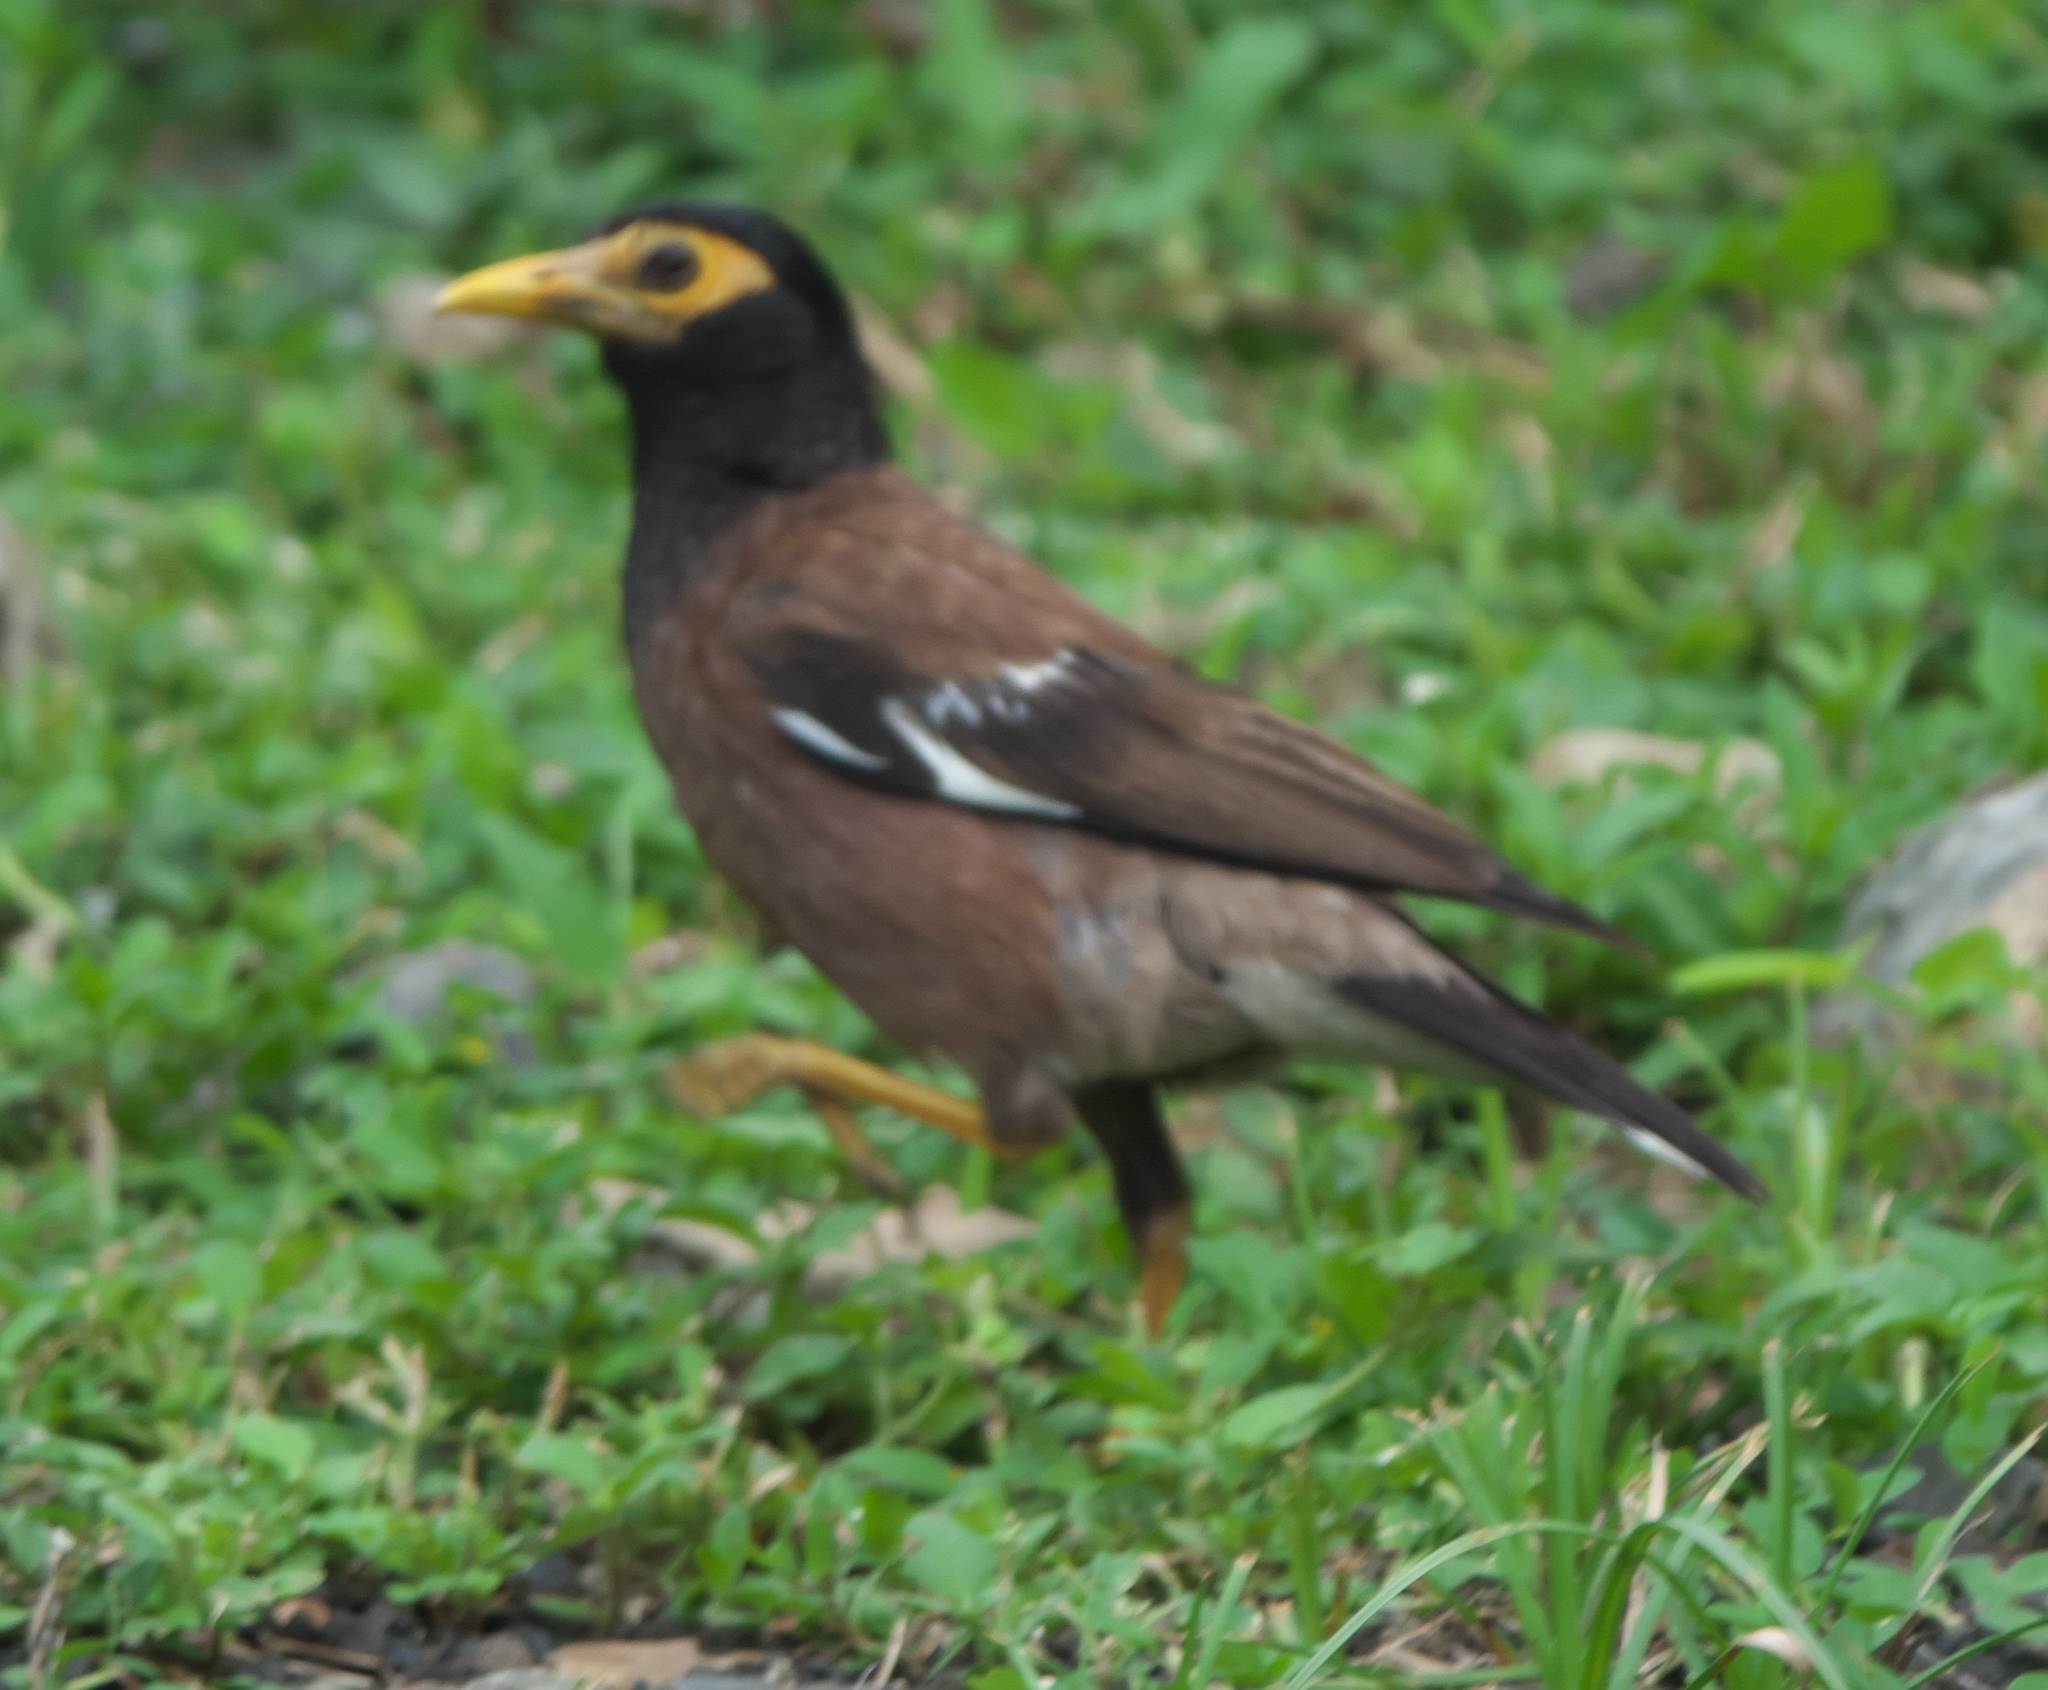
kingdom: Animalia
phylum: Chordata
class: Aves
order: Passeriformes
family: Sturnidae
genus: Acridotheres
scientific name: Acridotheres tristis
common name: Common myna
